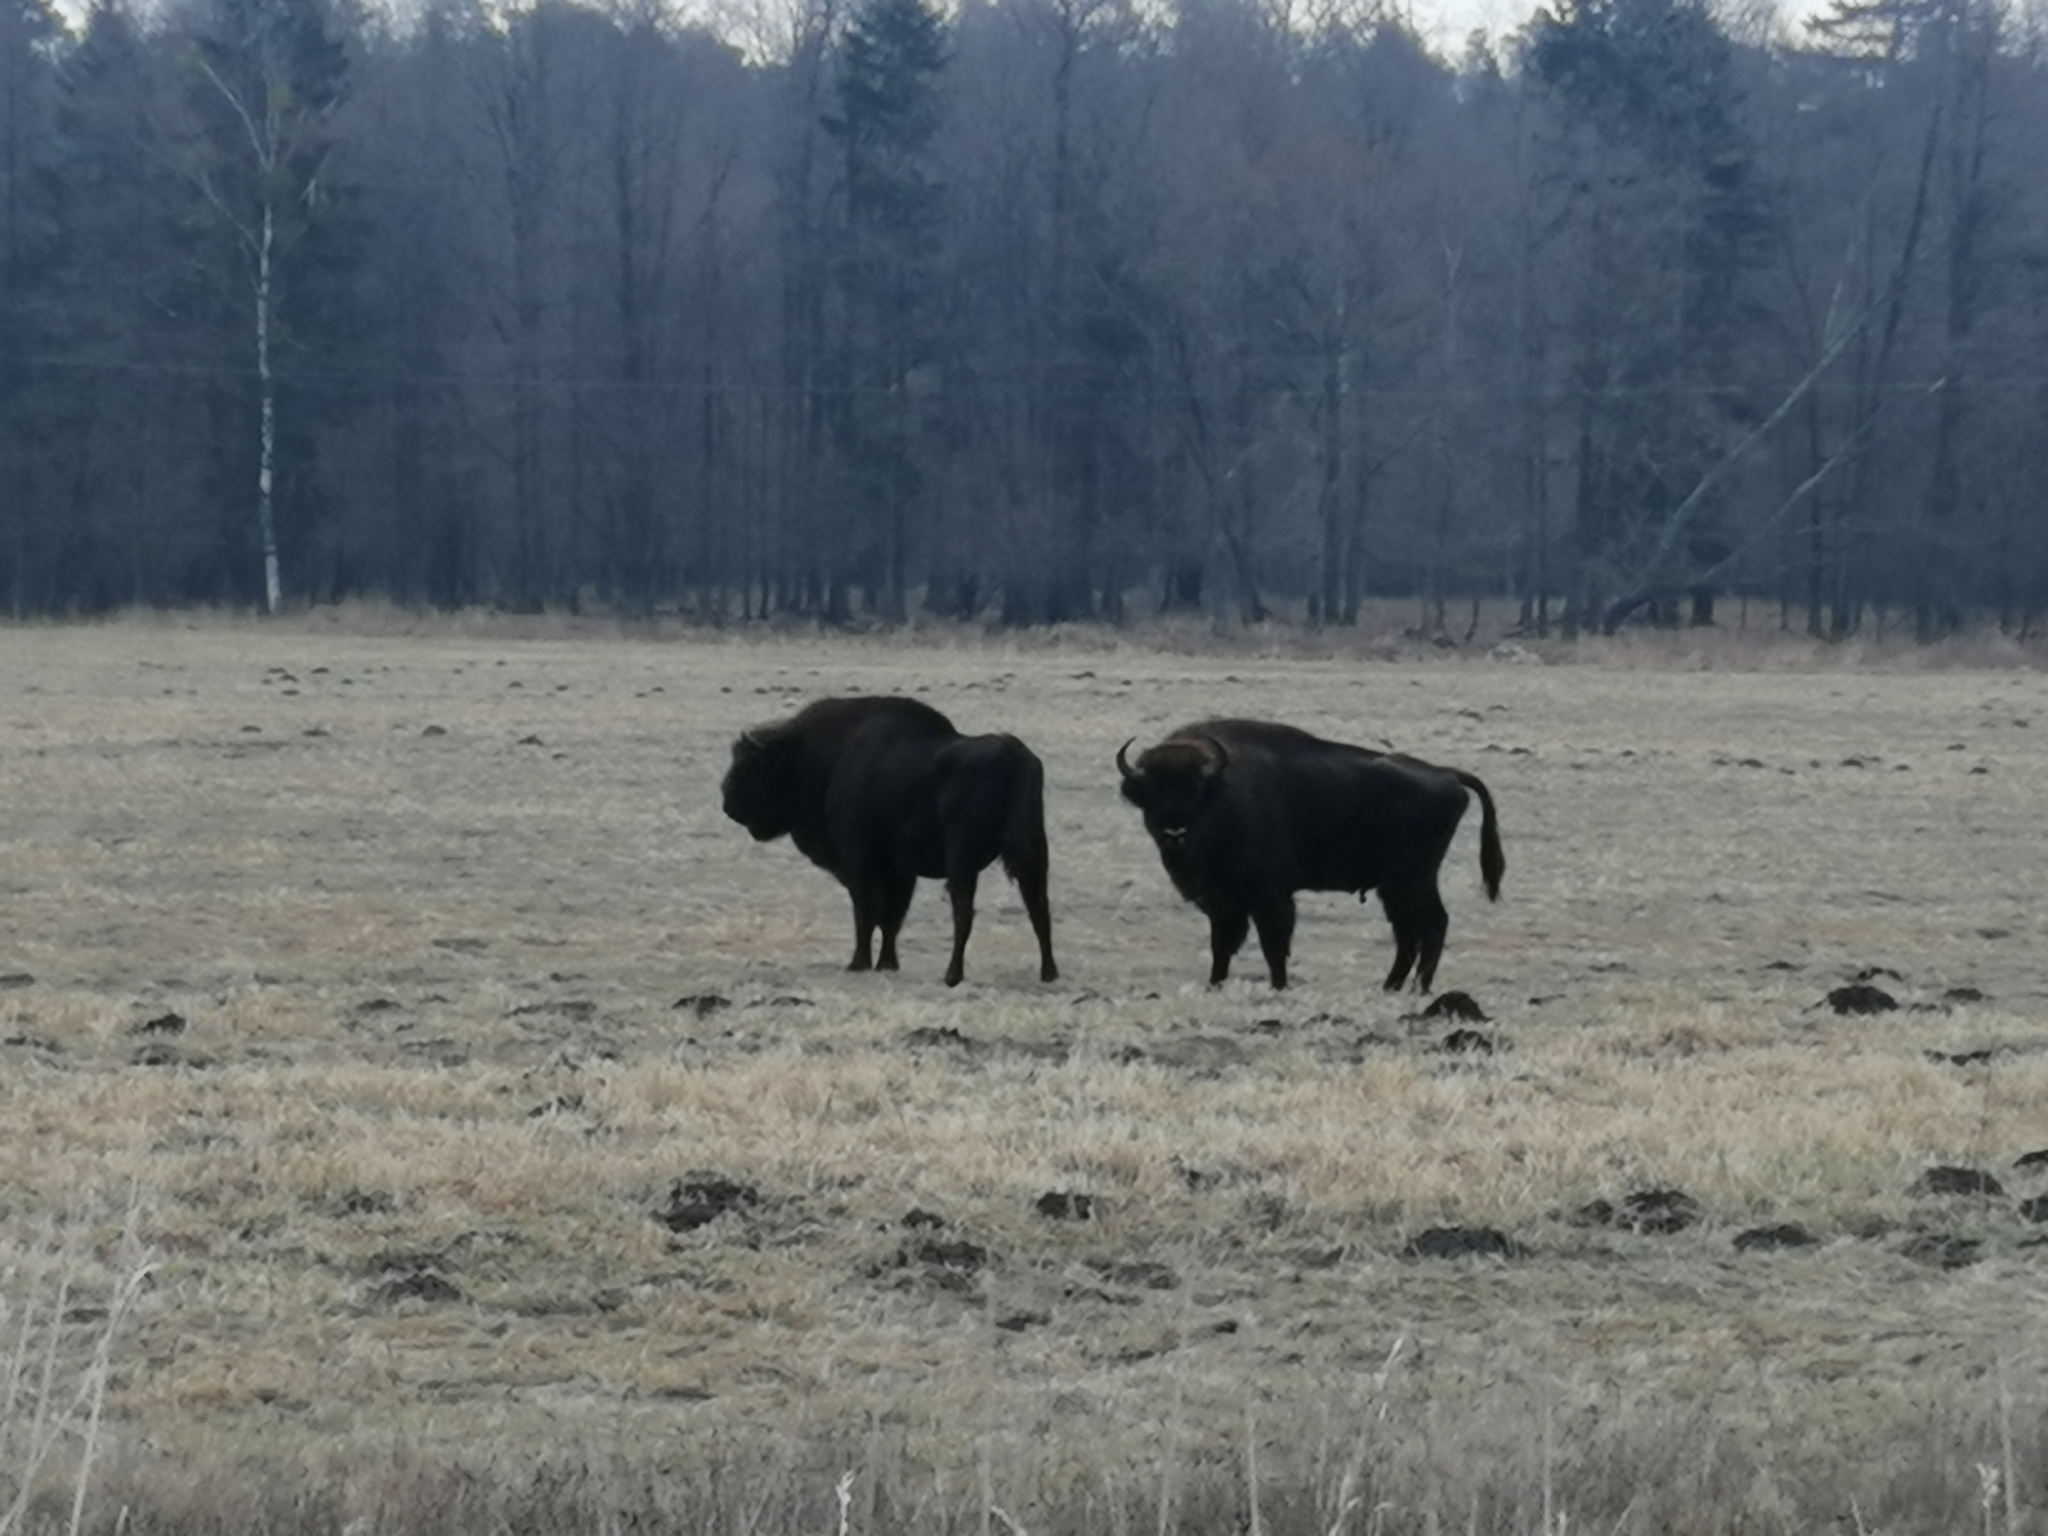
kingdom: Animalia
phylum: Chordata
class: Mammalia
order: Artiodactyla
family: Bovidae
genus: Bison
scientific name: Bison bonasus
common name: European bison
